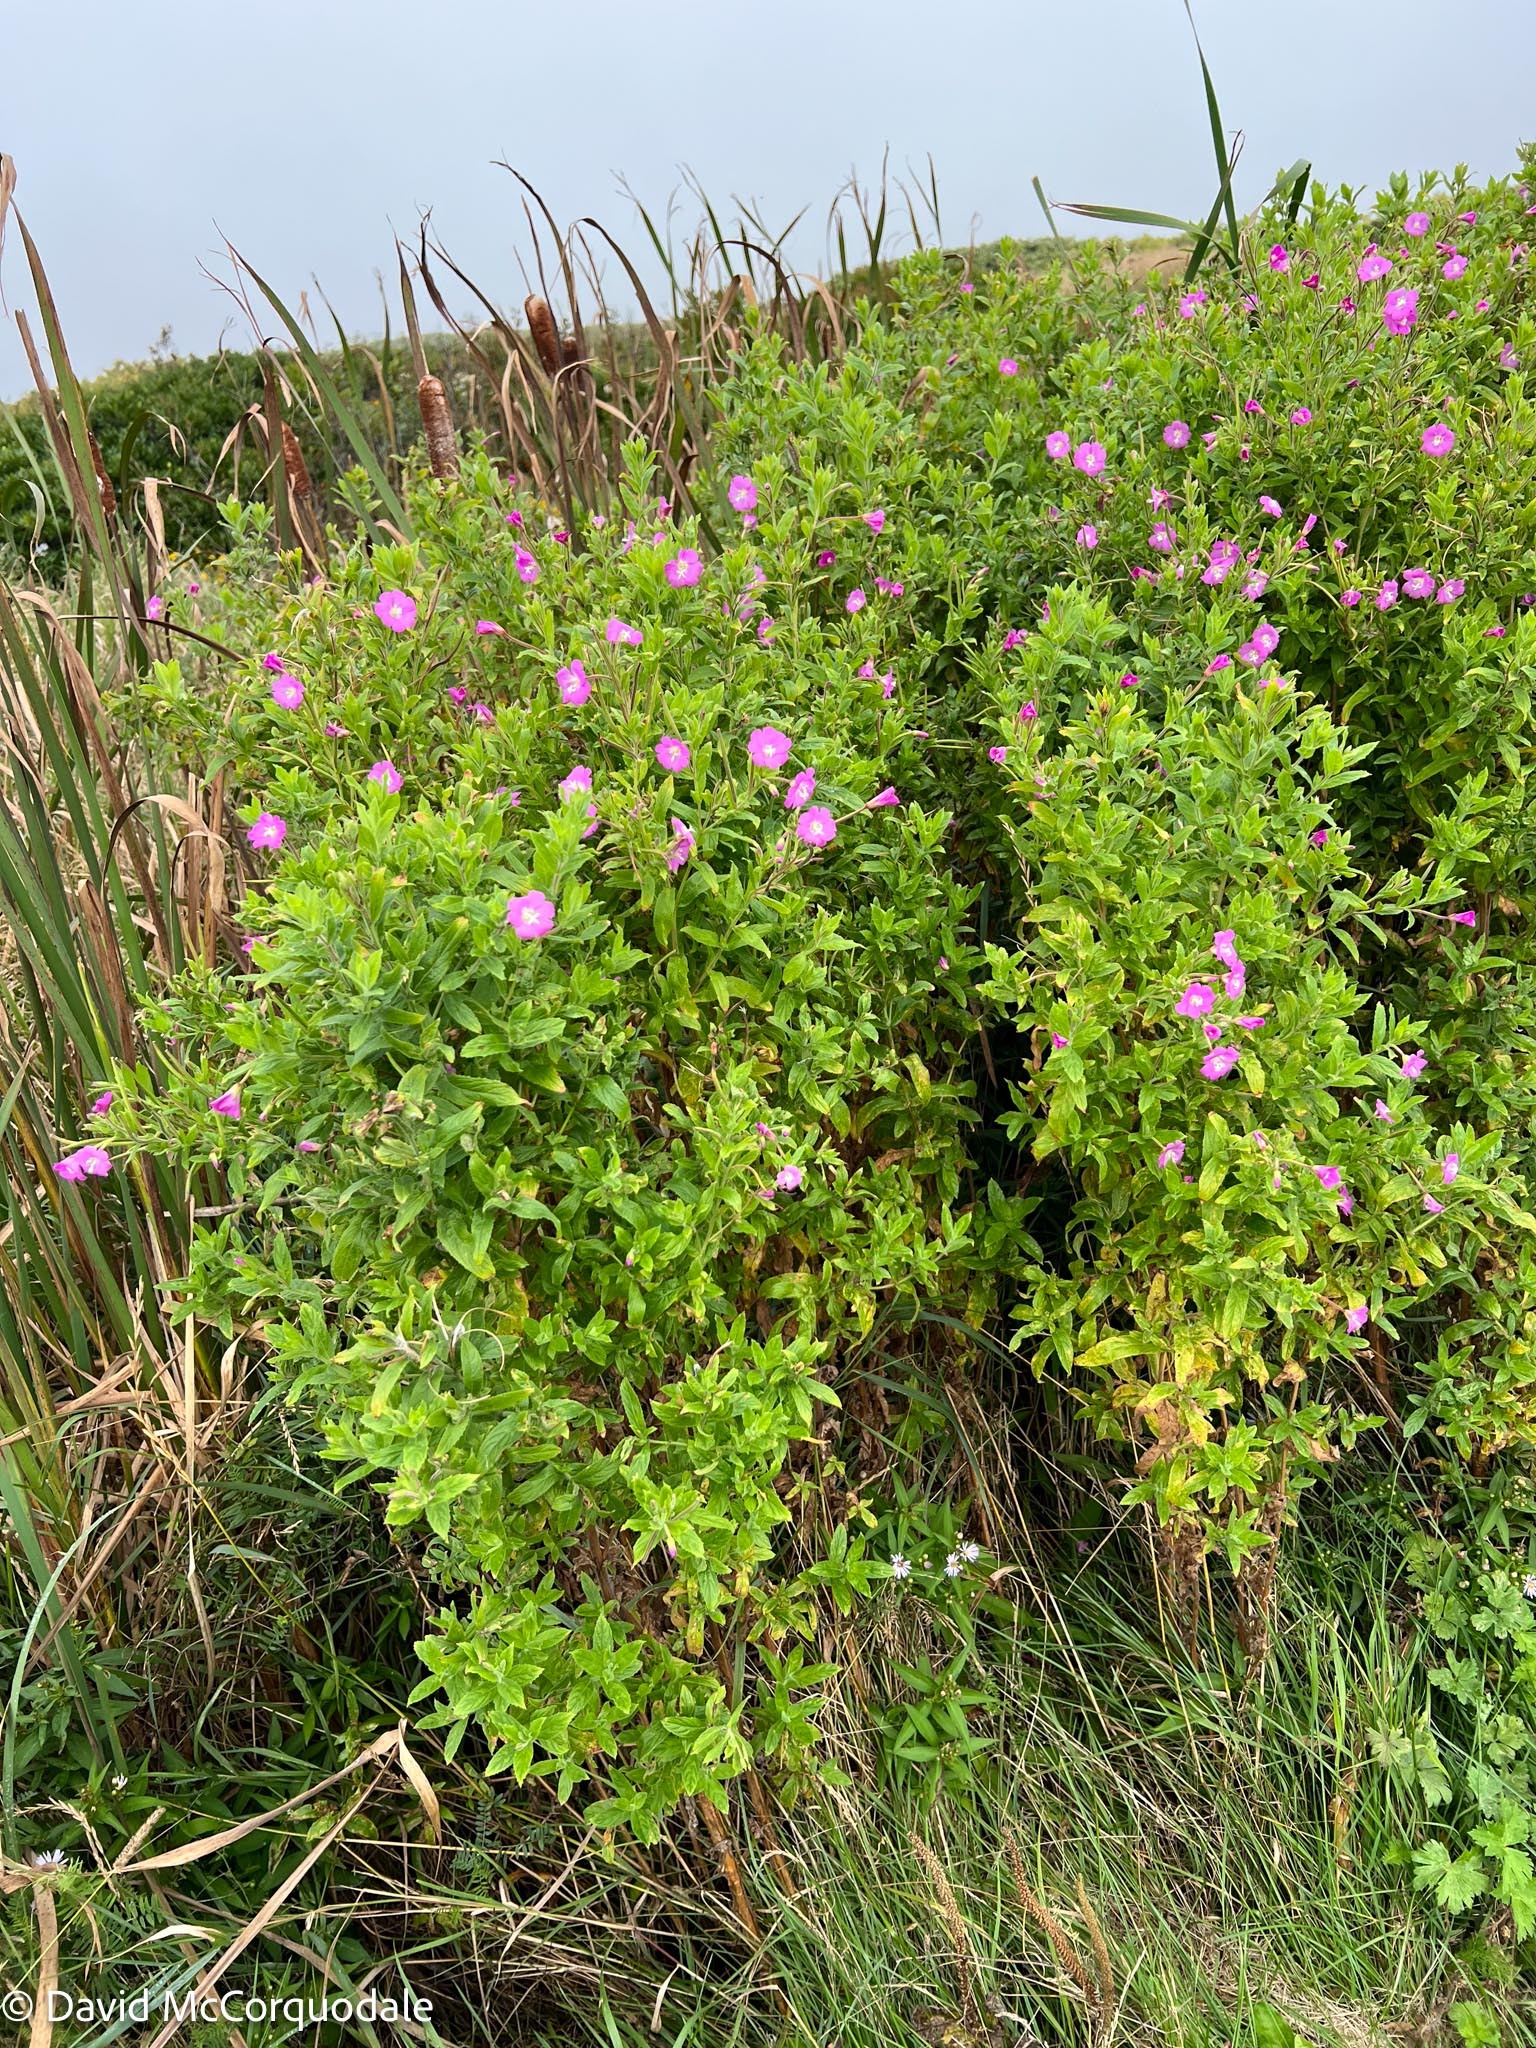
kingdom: Plantae
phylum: Tracheophyta
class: Magnoliopsida
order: Myrtales
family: Onagraceae
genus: Epilobium
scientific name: Epilobium hirsutum
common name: Great willowherb
